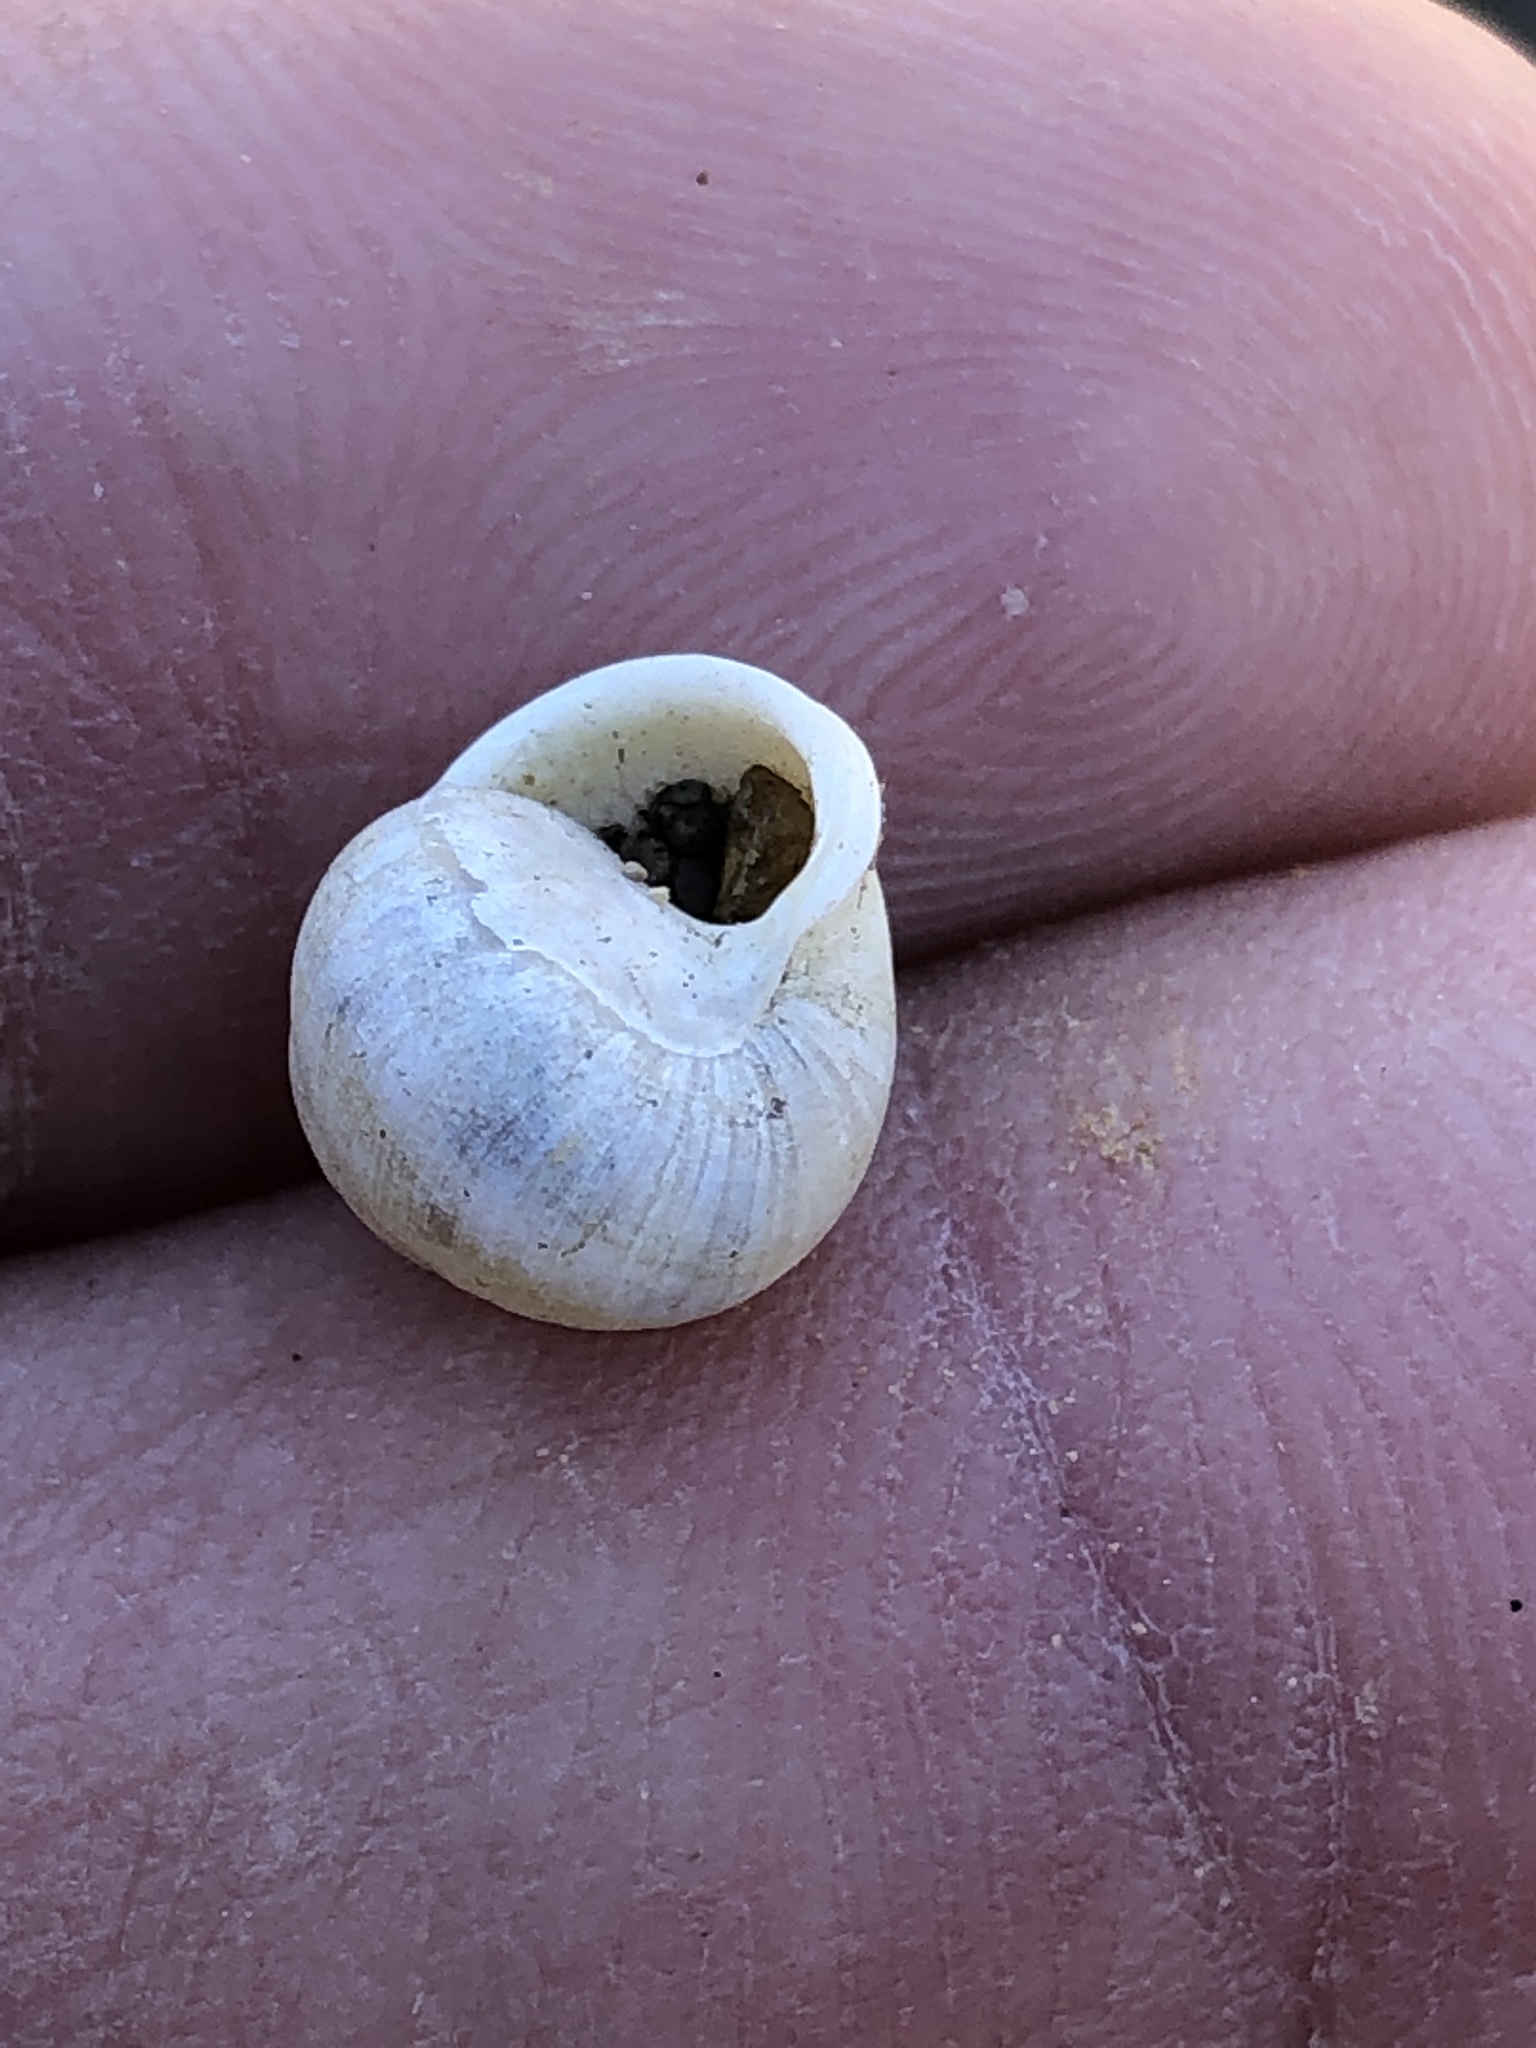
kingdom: Animalia
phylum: Mollusca
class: Gastropoda
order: Cycloneritida
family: Helicinidae
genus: Helicina
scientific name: Helicina orbiculata
